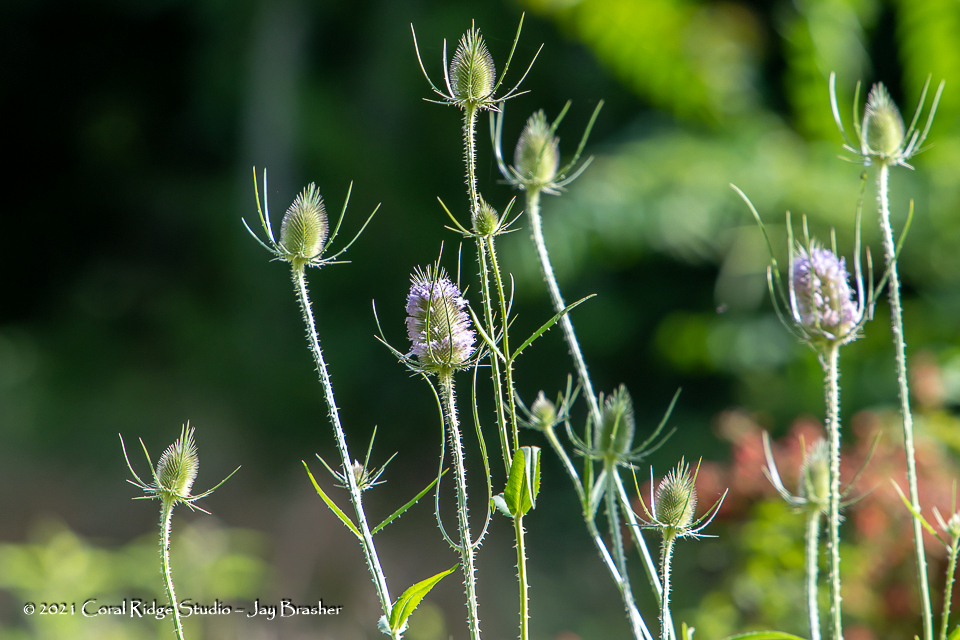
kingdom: Plantae
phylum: Tracheophyta
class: Magnoliopsida
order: Dipsacales
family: Caprifoliaceae
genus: Dipsacus
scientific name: Dipsacus fullonum
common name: Teasel
